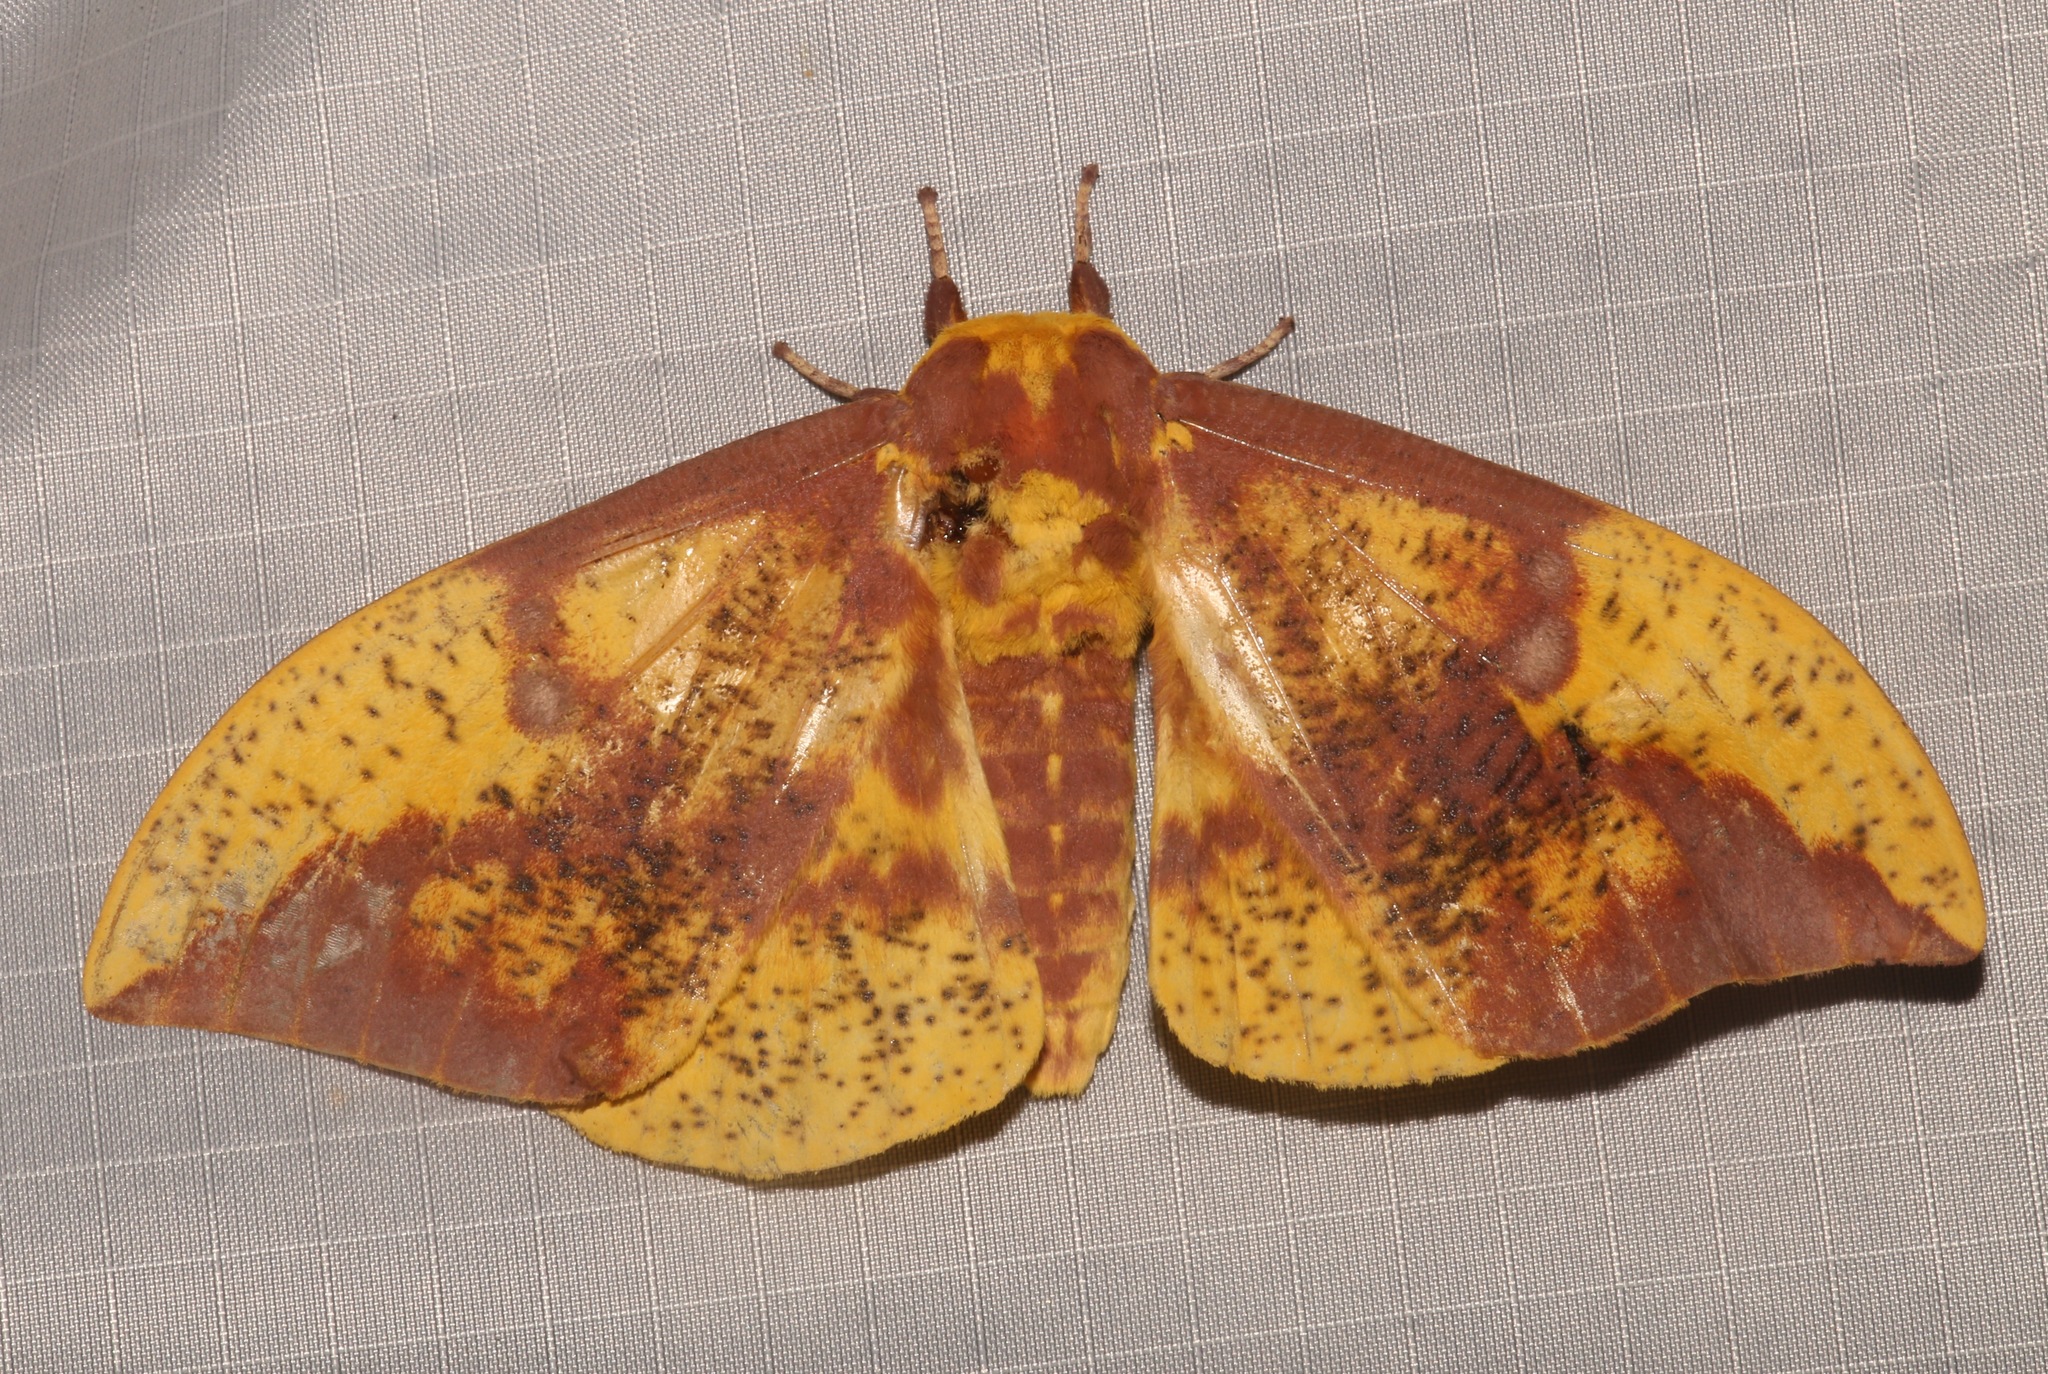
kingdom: Animalia
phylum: Arthropoda
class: Insecta
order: Lepidoptera
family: Saturniidae
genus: Eacles
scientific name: Eacles imperialis
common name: Imperial moth
